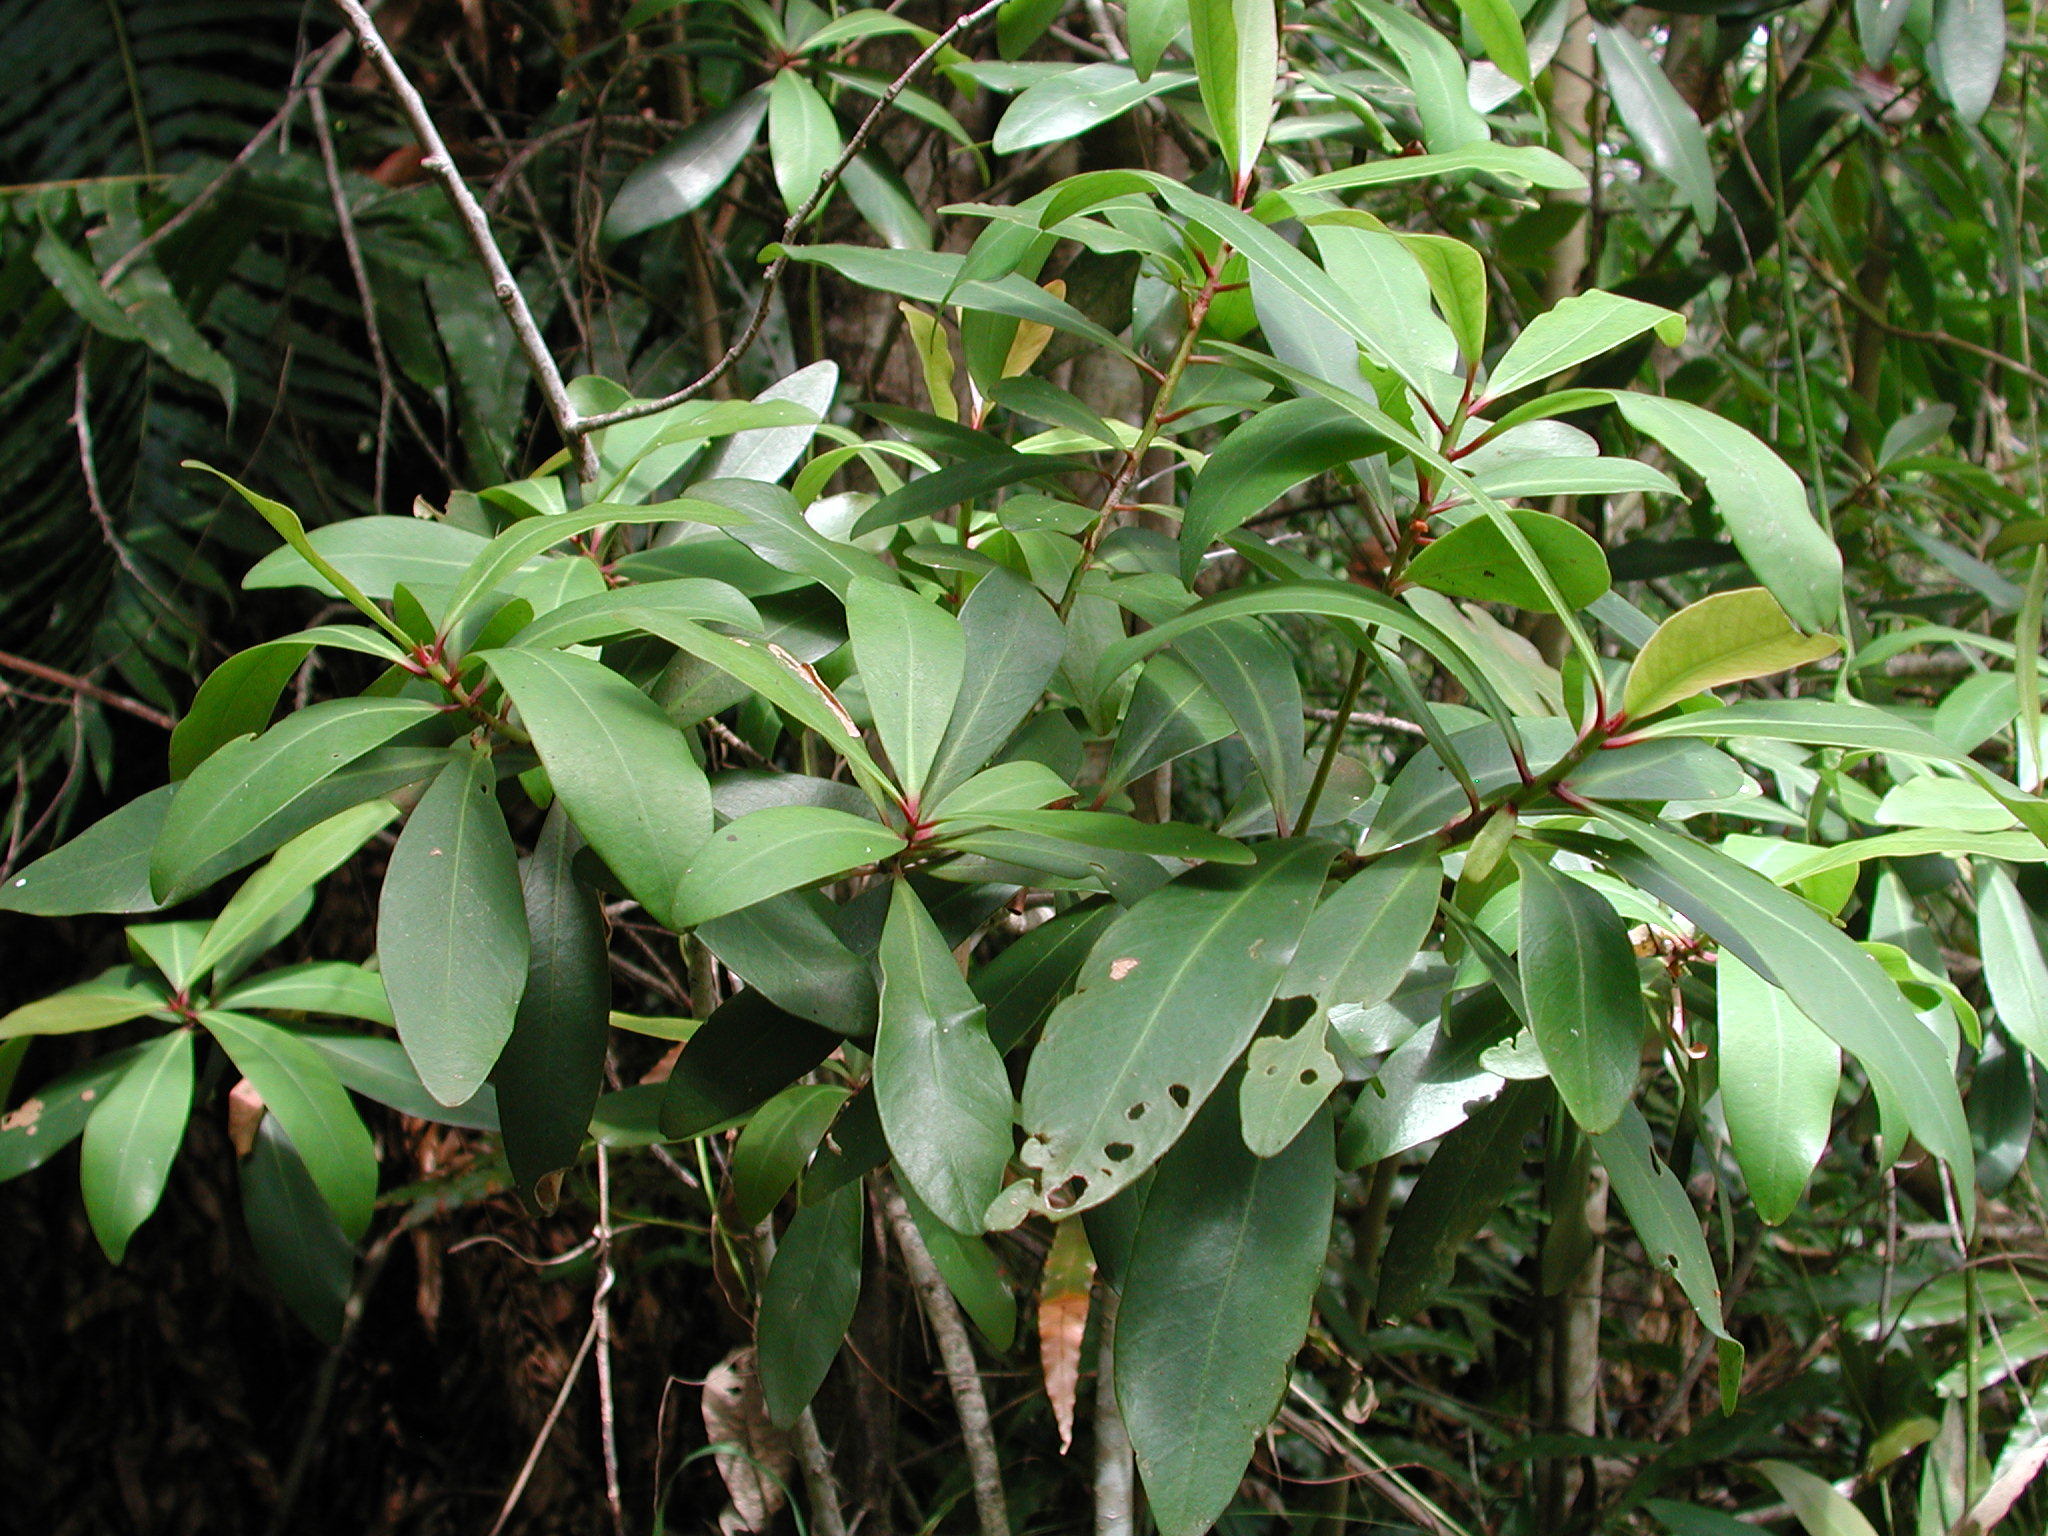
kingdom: Plantae
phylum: Tracheophyta
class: Magnoliopsida
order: Ericales
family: Primulaceae
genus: Myrsine
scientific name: Myrsine melanophloeos
